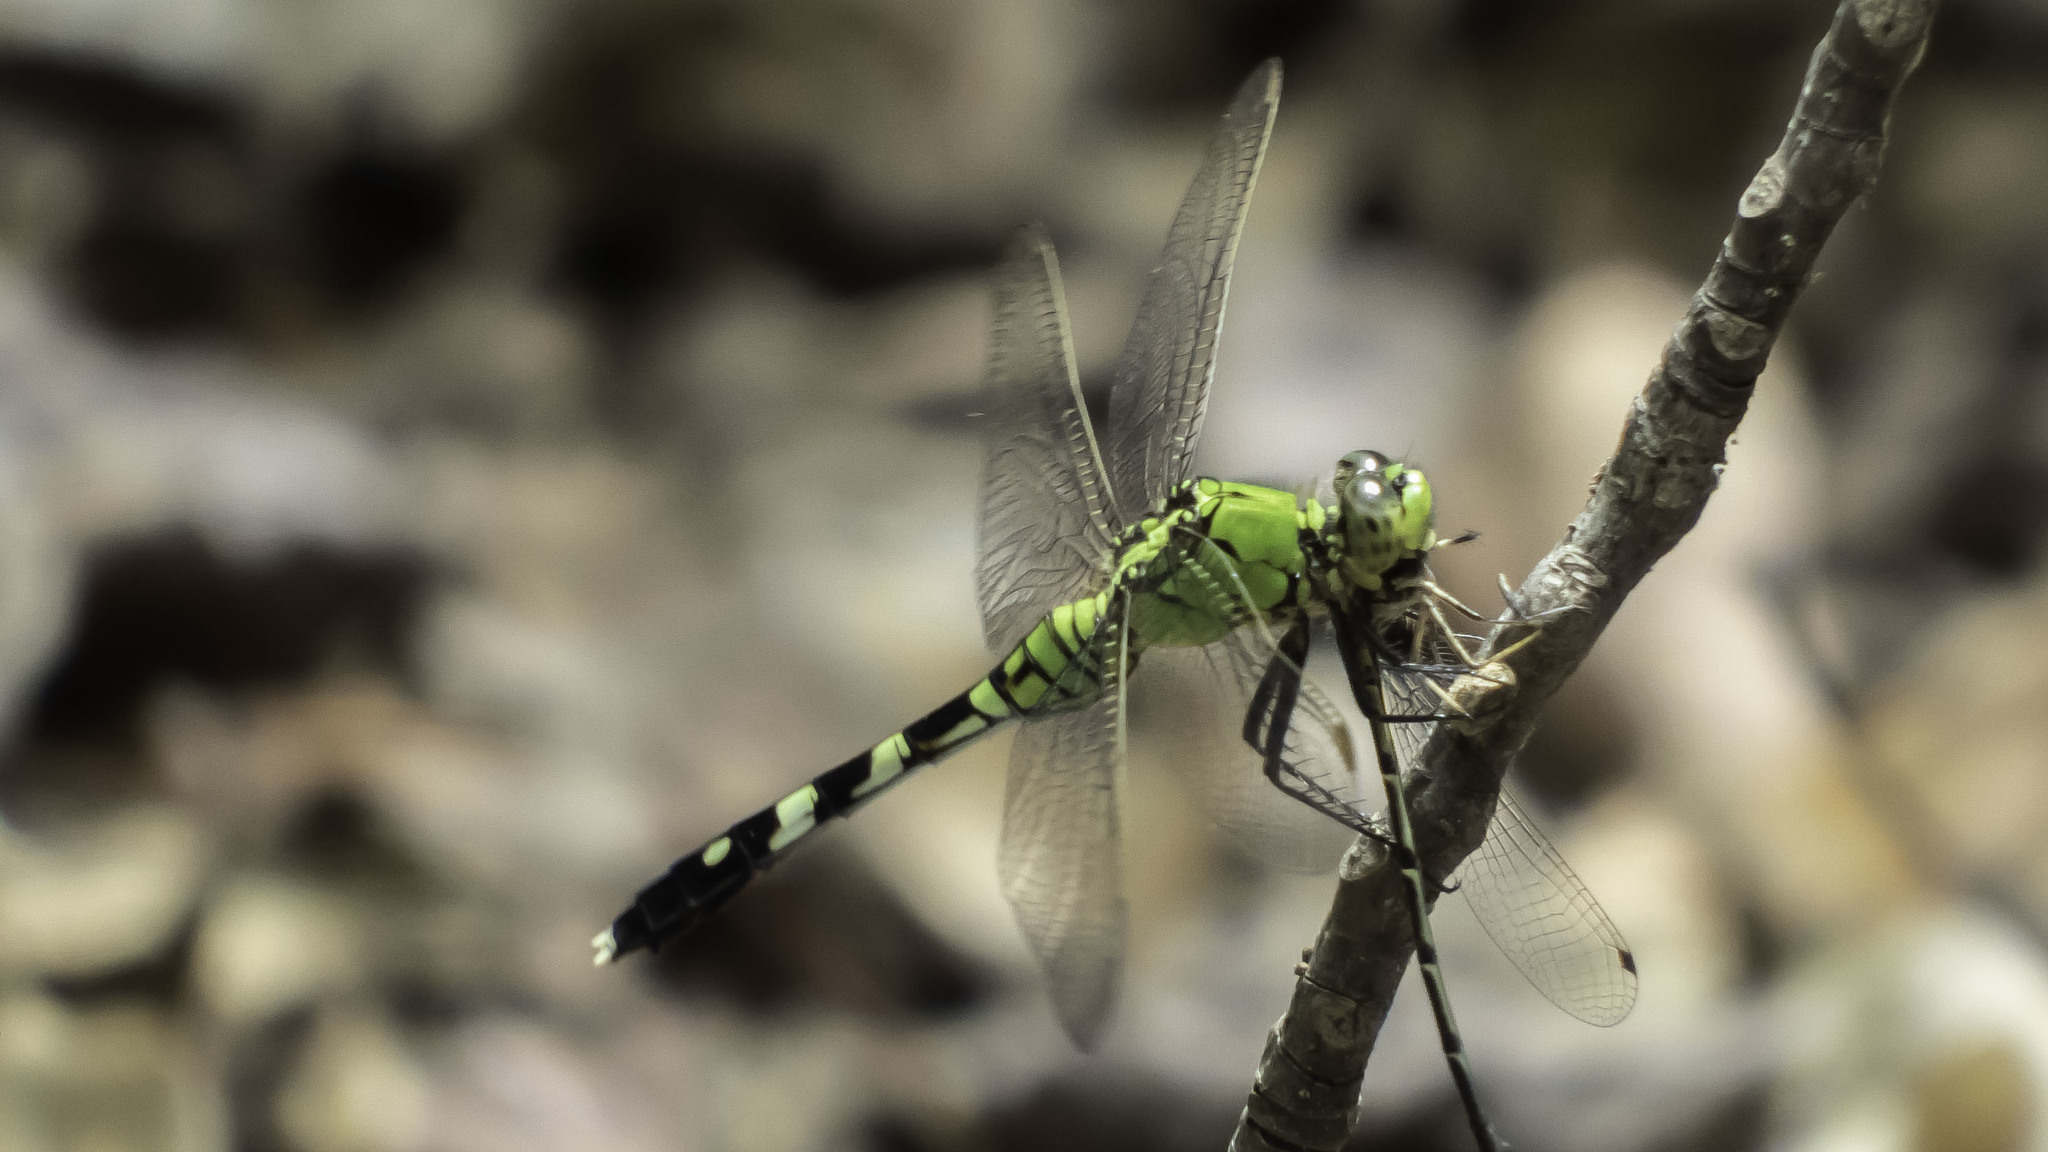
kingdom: Animalia
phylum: Arthropoda
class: Insecta
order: Odonata
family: Libellulidae
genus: Erythemis
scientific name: Erythemis simplicicollis
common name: Eastern pondhawk
